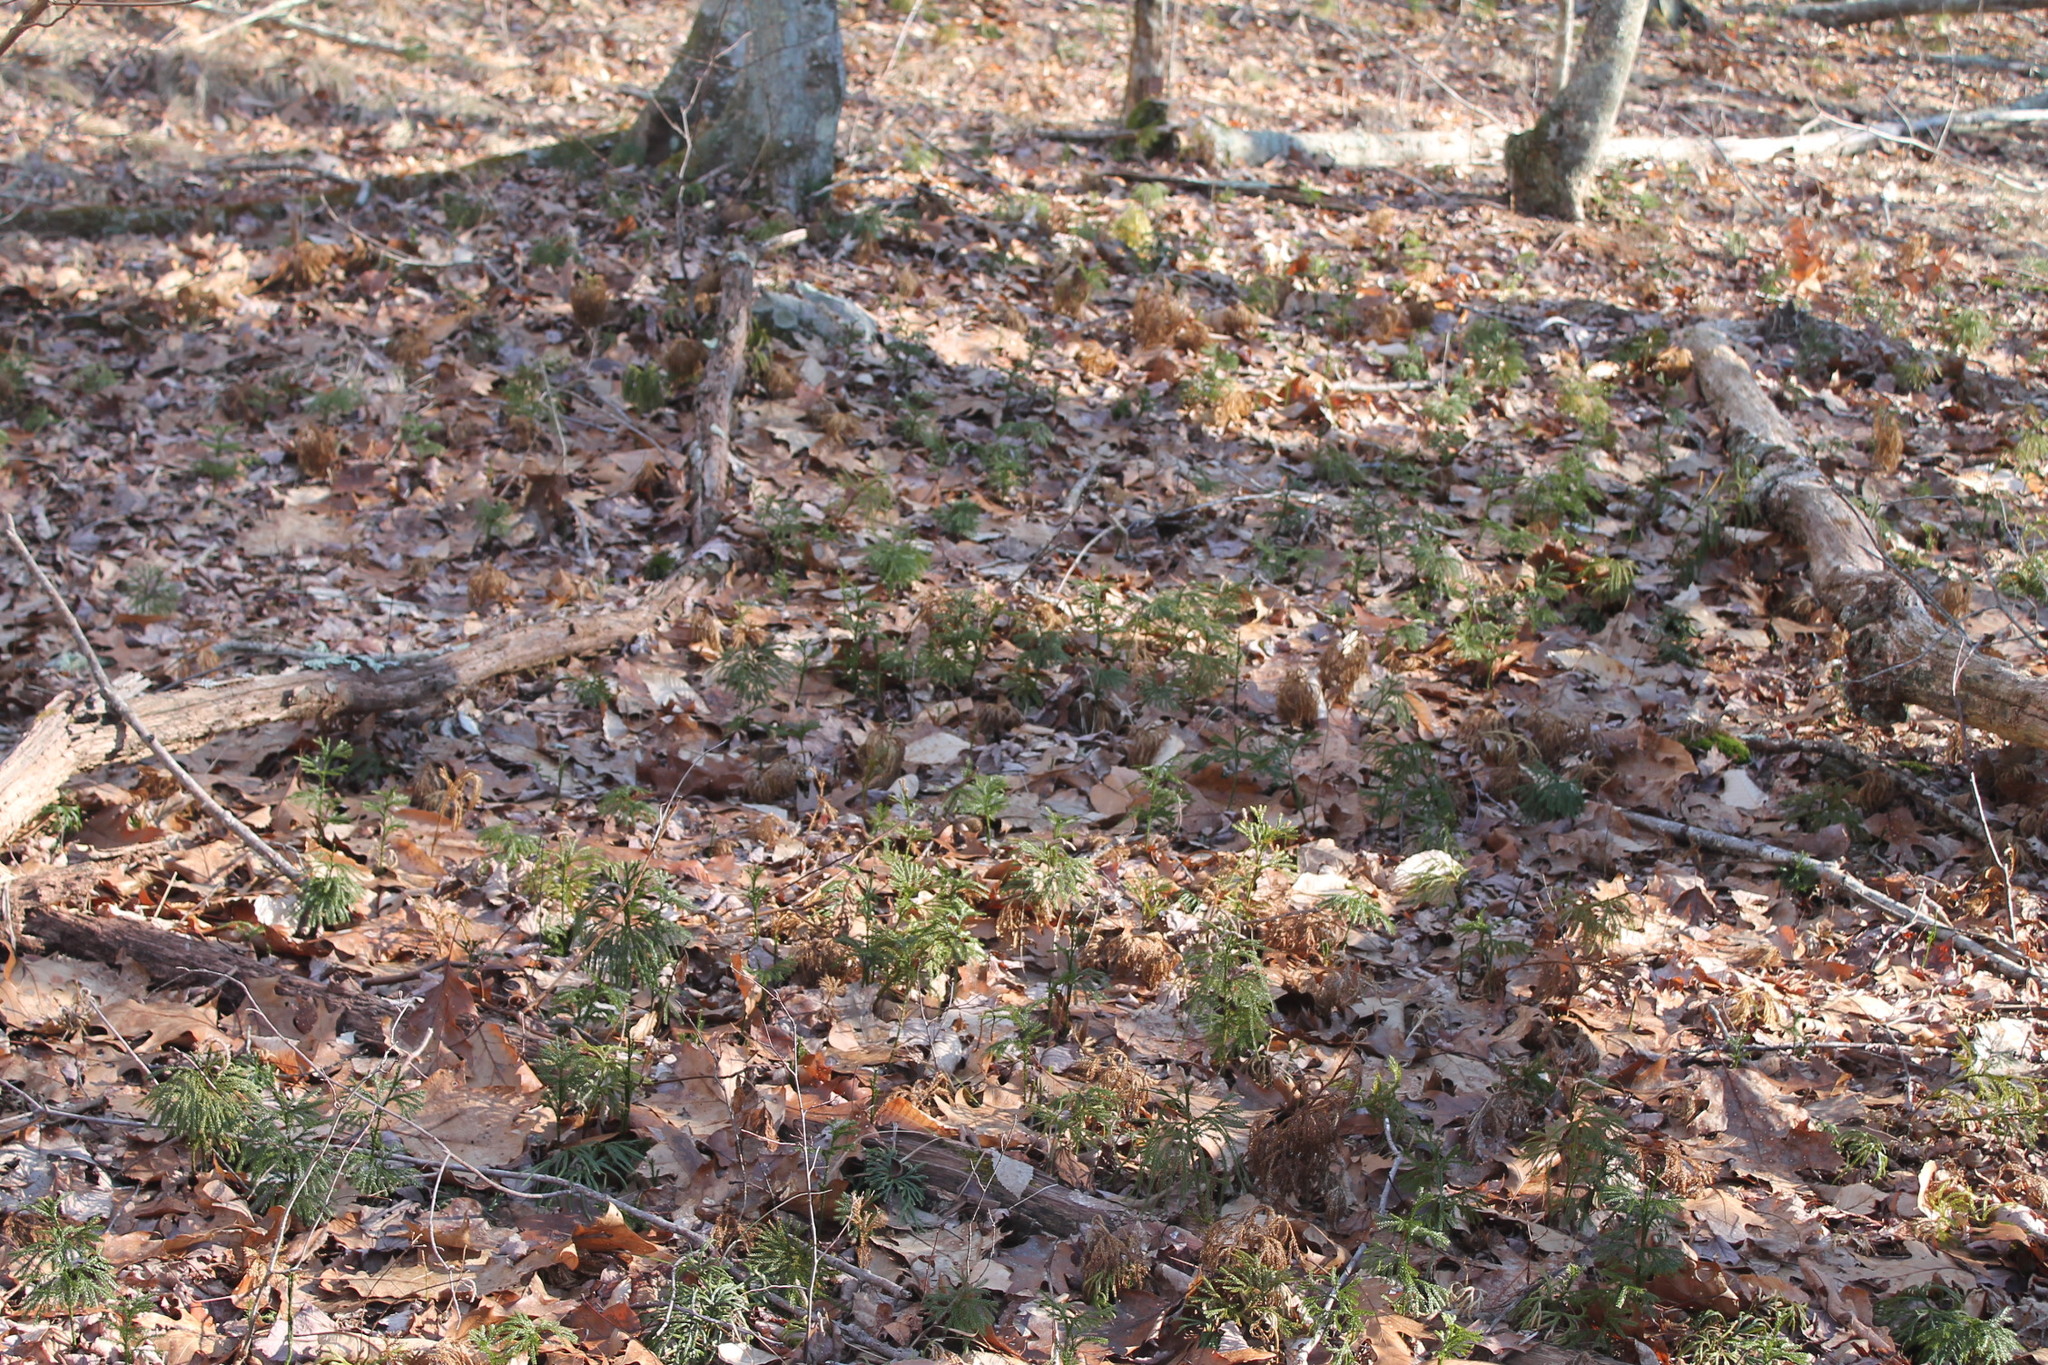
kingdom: Plantae
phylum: Tracheophyta
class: Lycopodiopsida
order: Lycopodiales
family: Lycopodiaceae
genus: Dendrolycopodium
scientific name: Dendrolycopodium obscurum
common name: Common ground-pine
